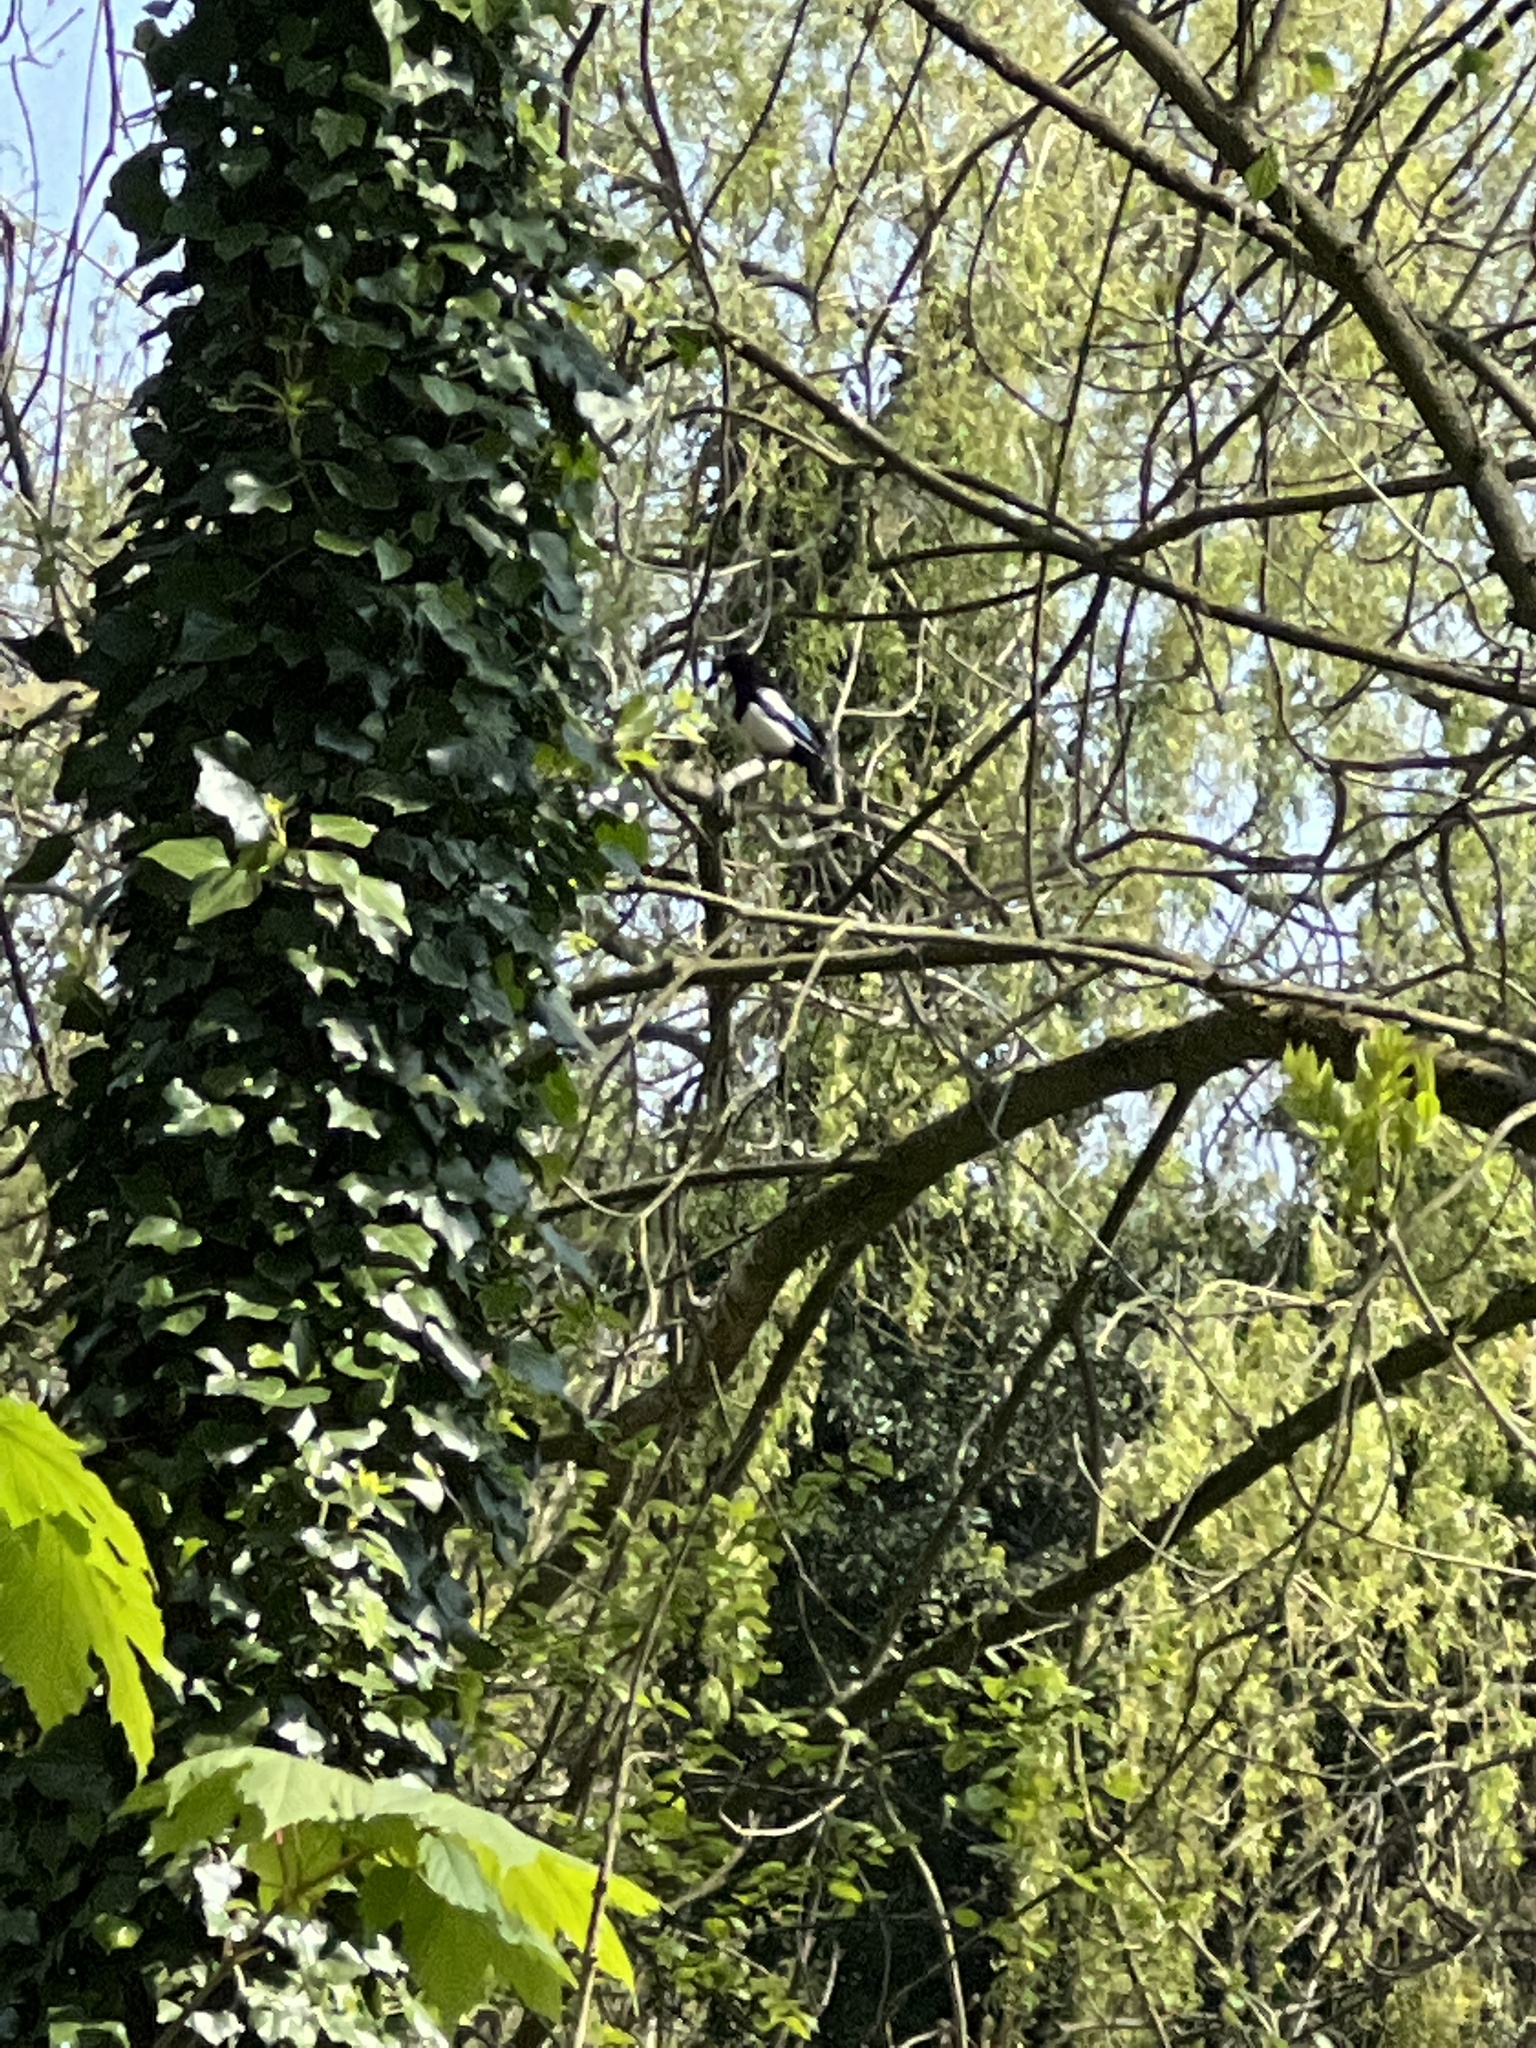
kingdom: Animalia
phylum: Chordata
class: Aves
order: Passeriformes
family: Corvidae
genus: Pica
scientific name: Pica pica
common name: Eurasian magpie
